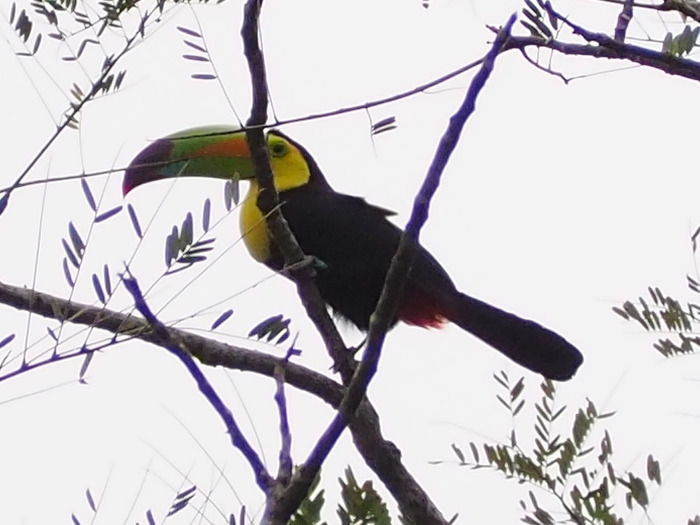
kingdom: Animalia
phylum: Chordata
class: Aves
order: Piciformes
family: Ramphastidae
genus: Ramphastos
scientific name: Ramphastos sulfuratus
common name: Keel-billed toucan
